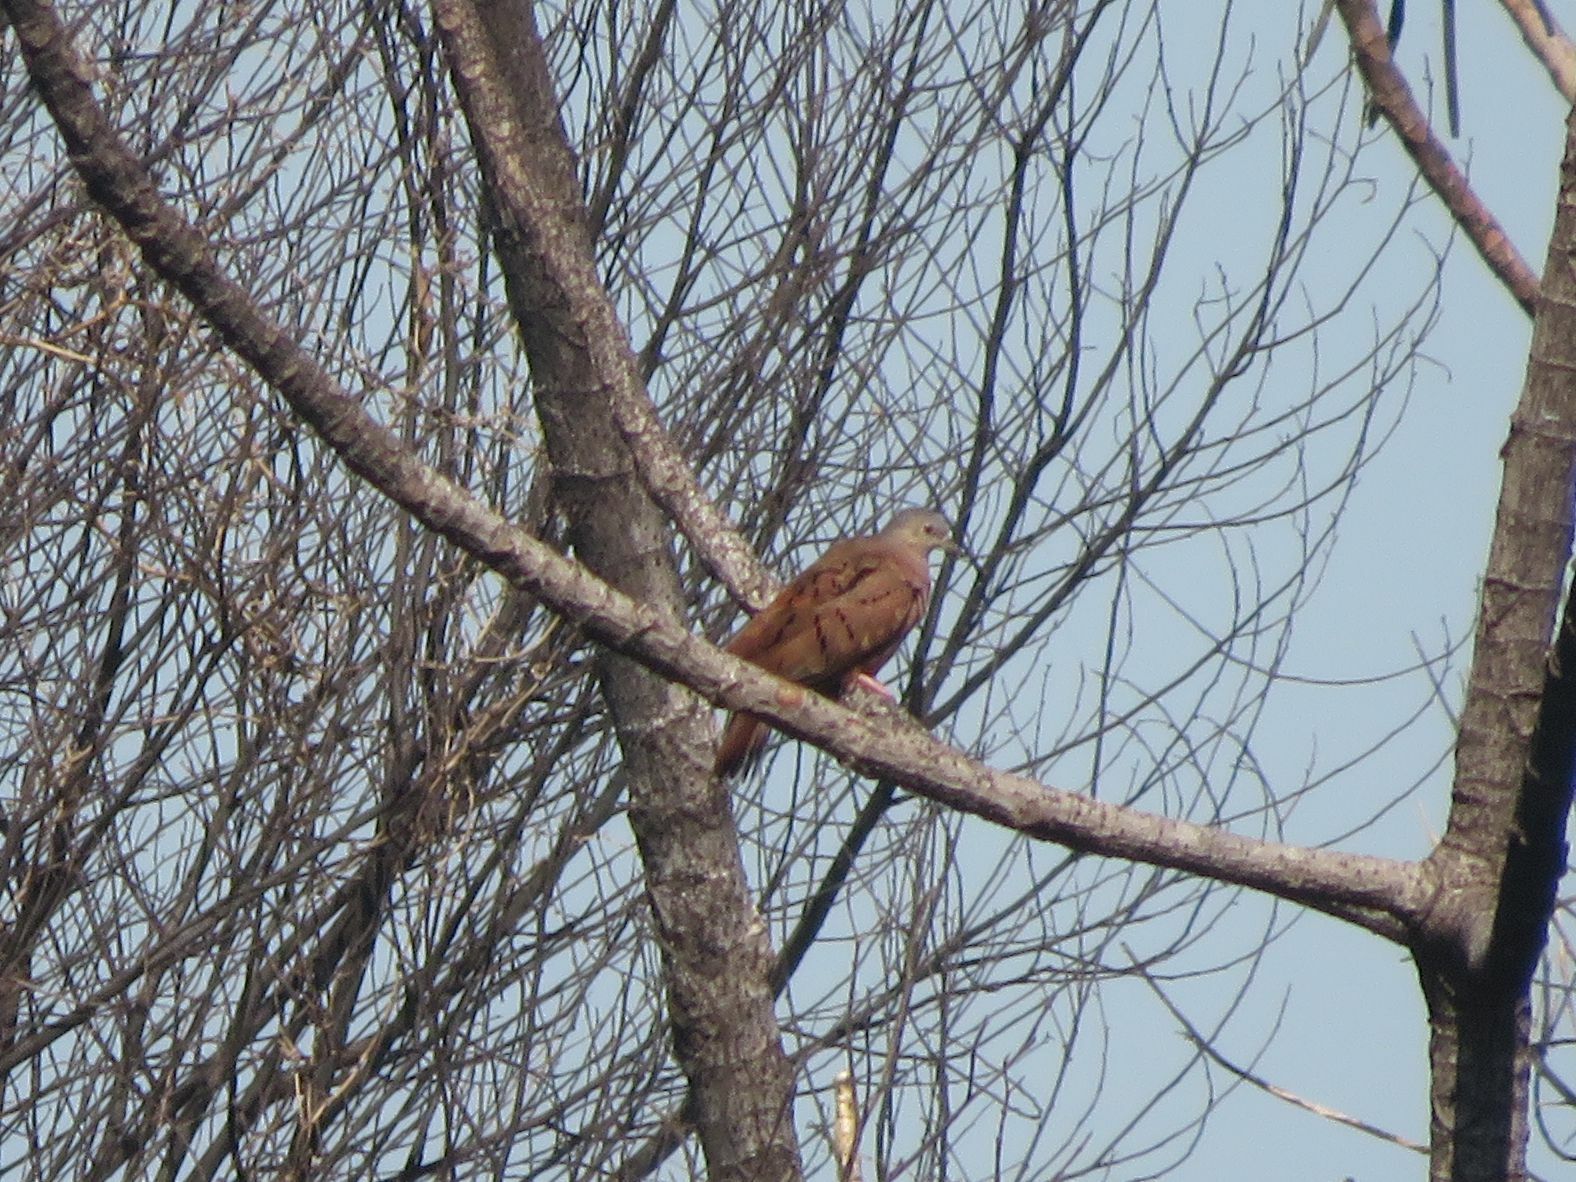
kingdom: Animalia
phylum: Chordata
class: Aves
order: Columbiformes
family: Columbidae
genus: Columbina
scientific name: Columbina talpacoti
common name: Ruddy ground dove
